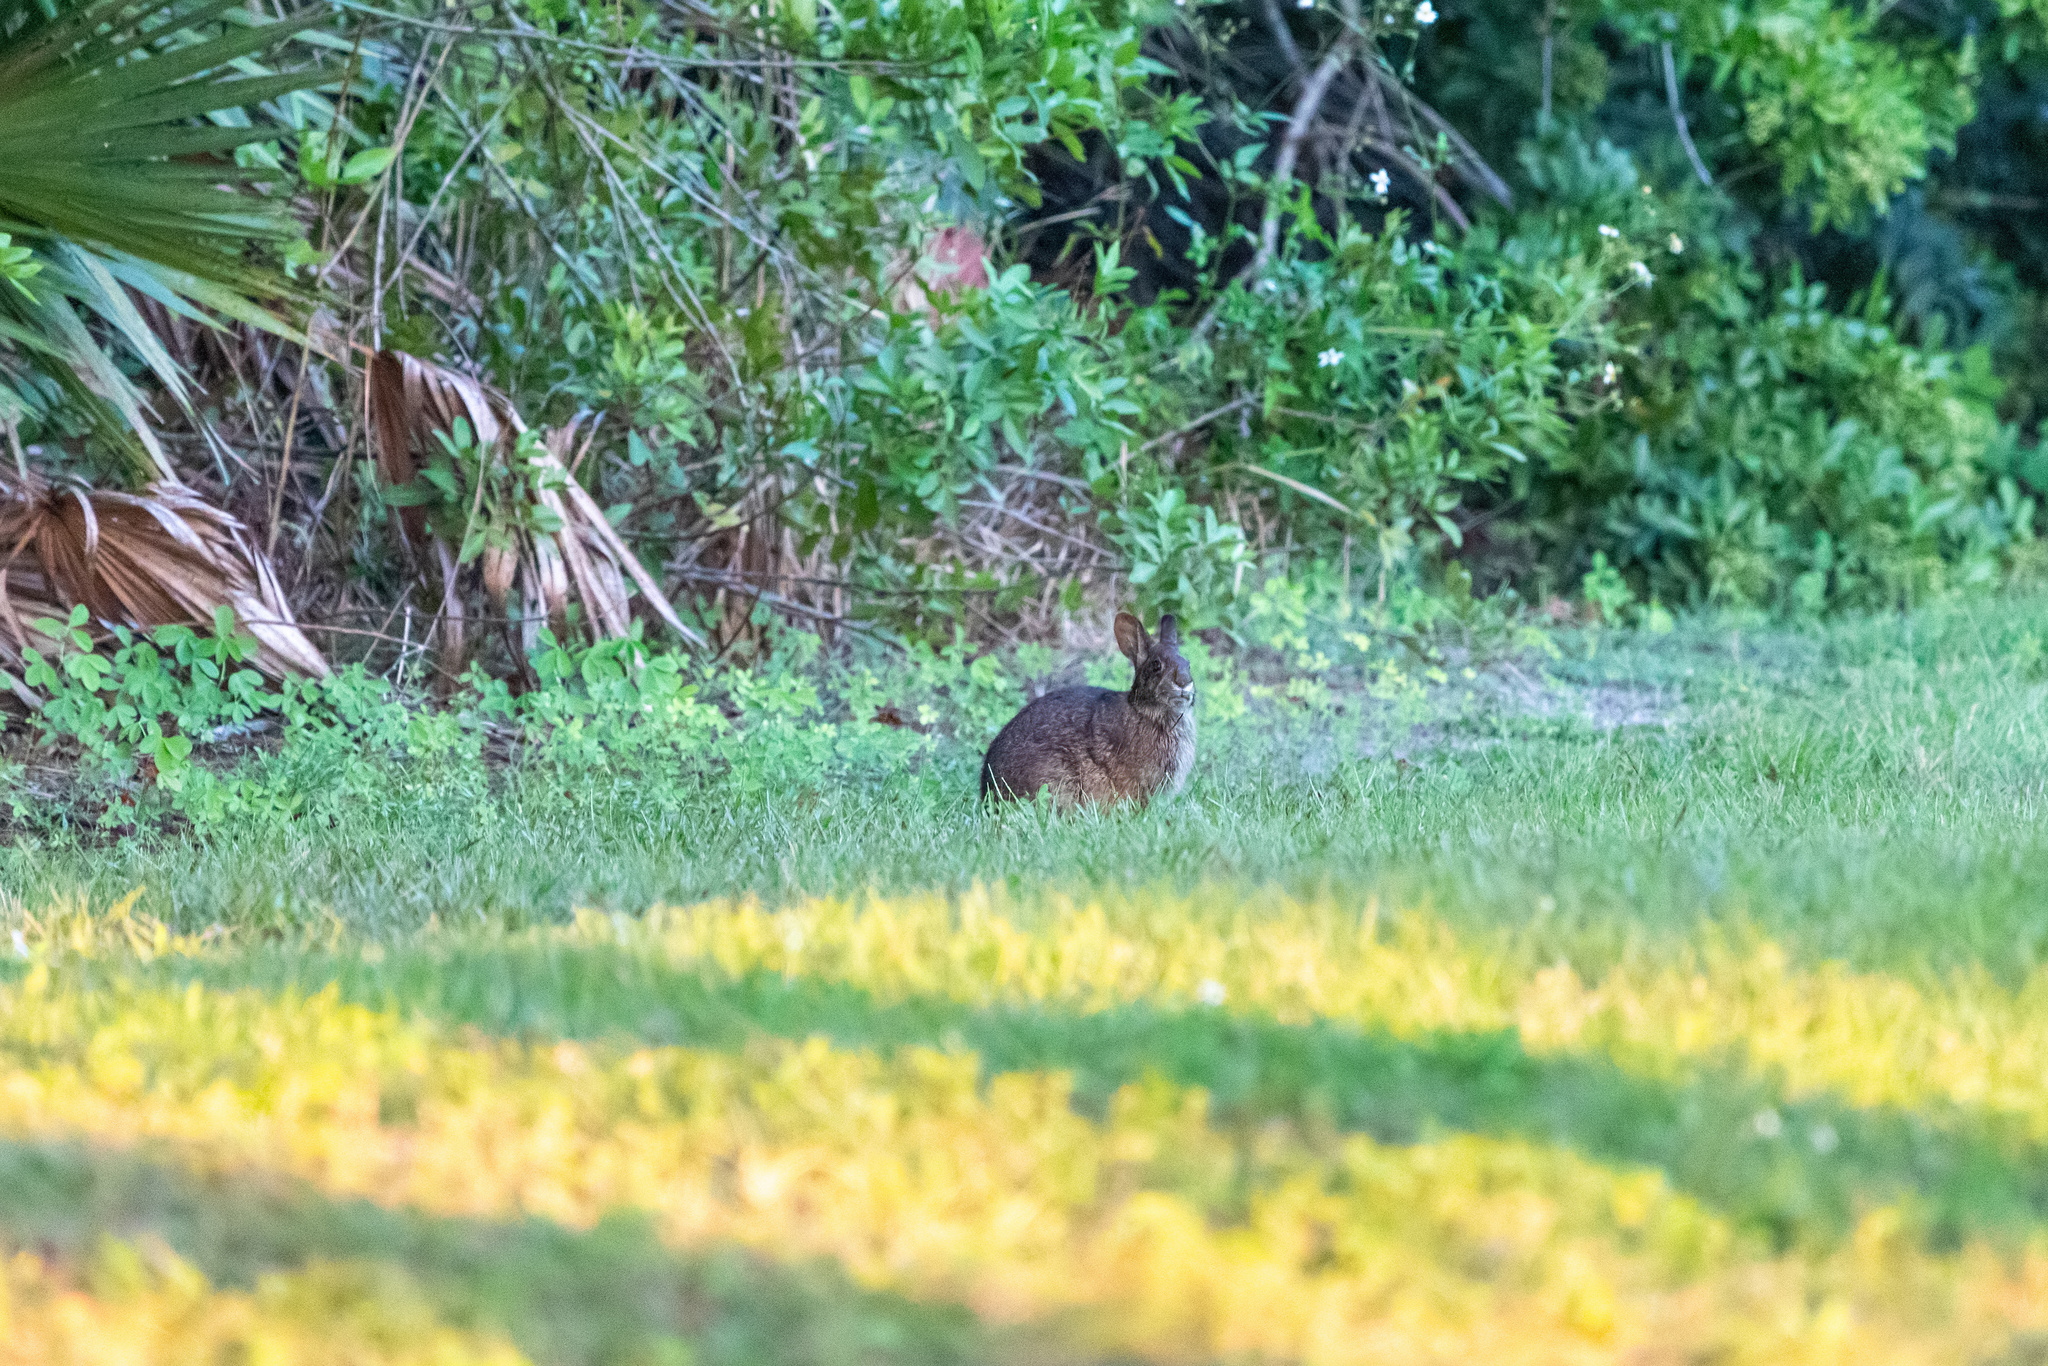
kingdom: Animalia
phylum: Chordata
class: Mammalia
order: Lagomorpha
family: Leporidae
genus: Sylvilagus
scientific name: Sylvilagus palustris
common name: Marsh rabbit
